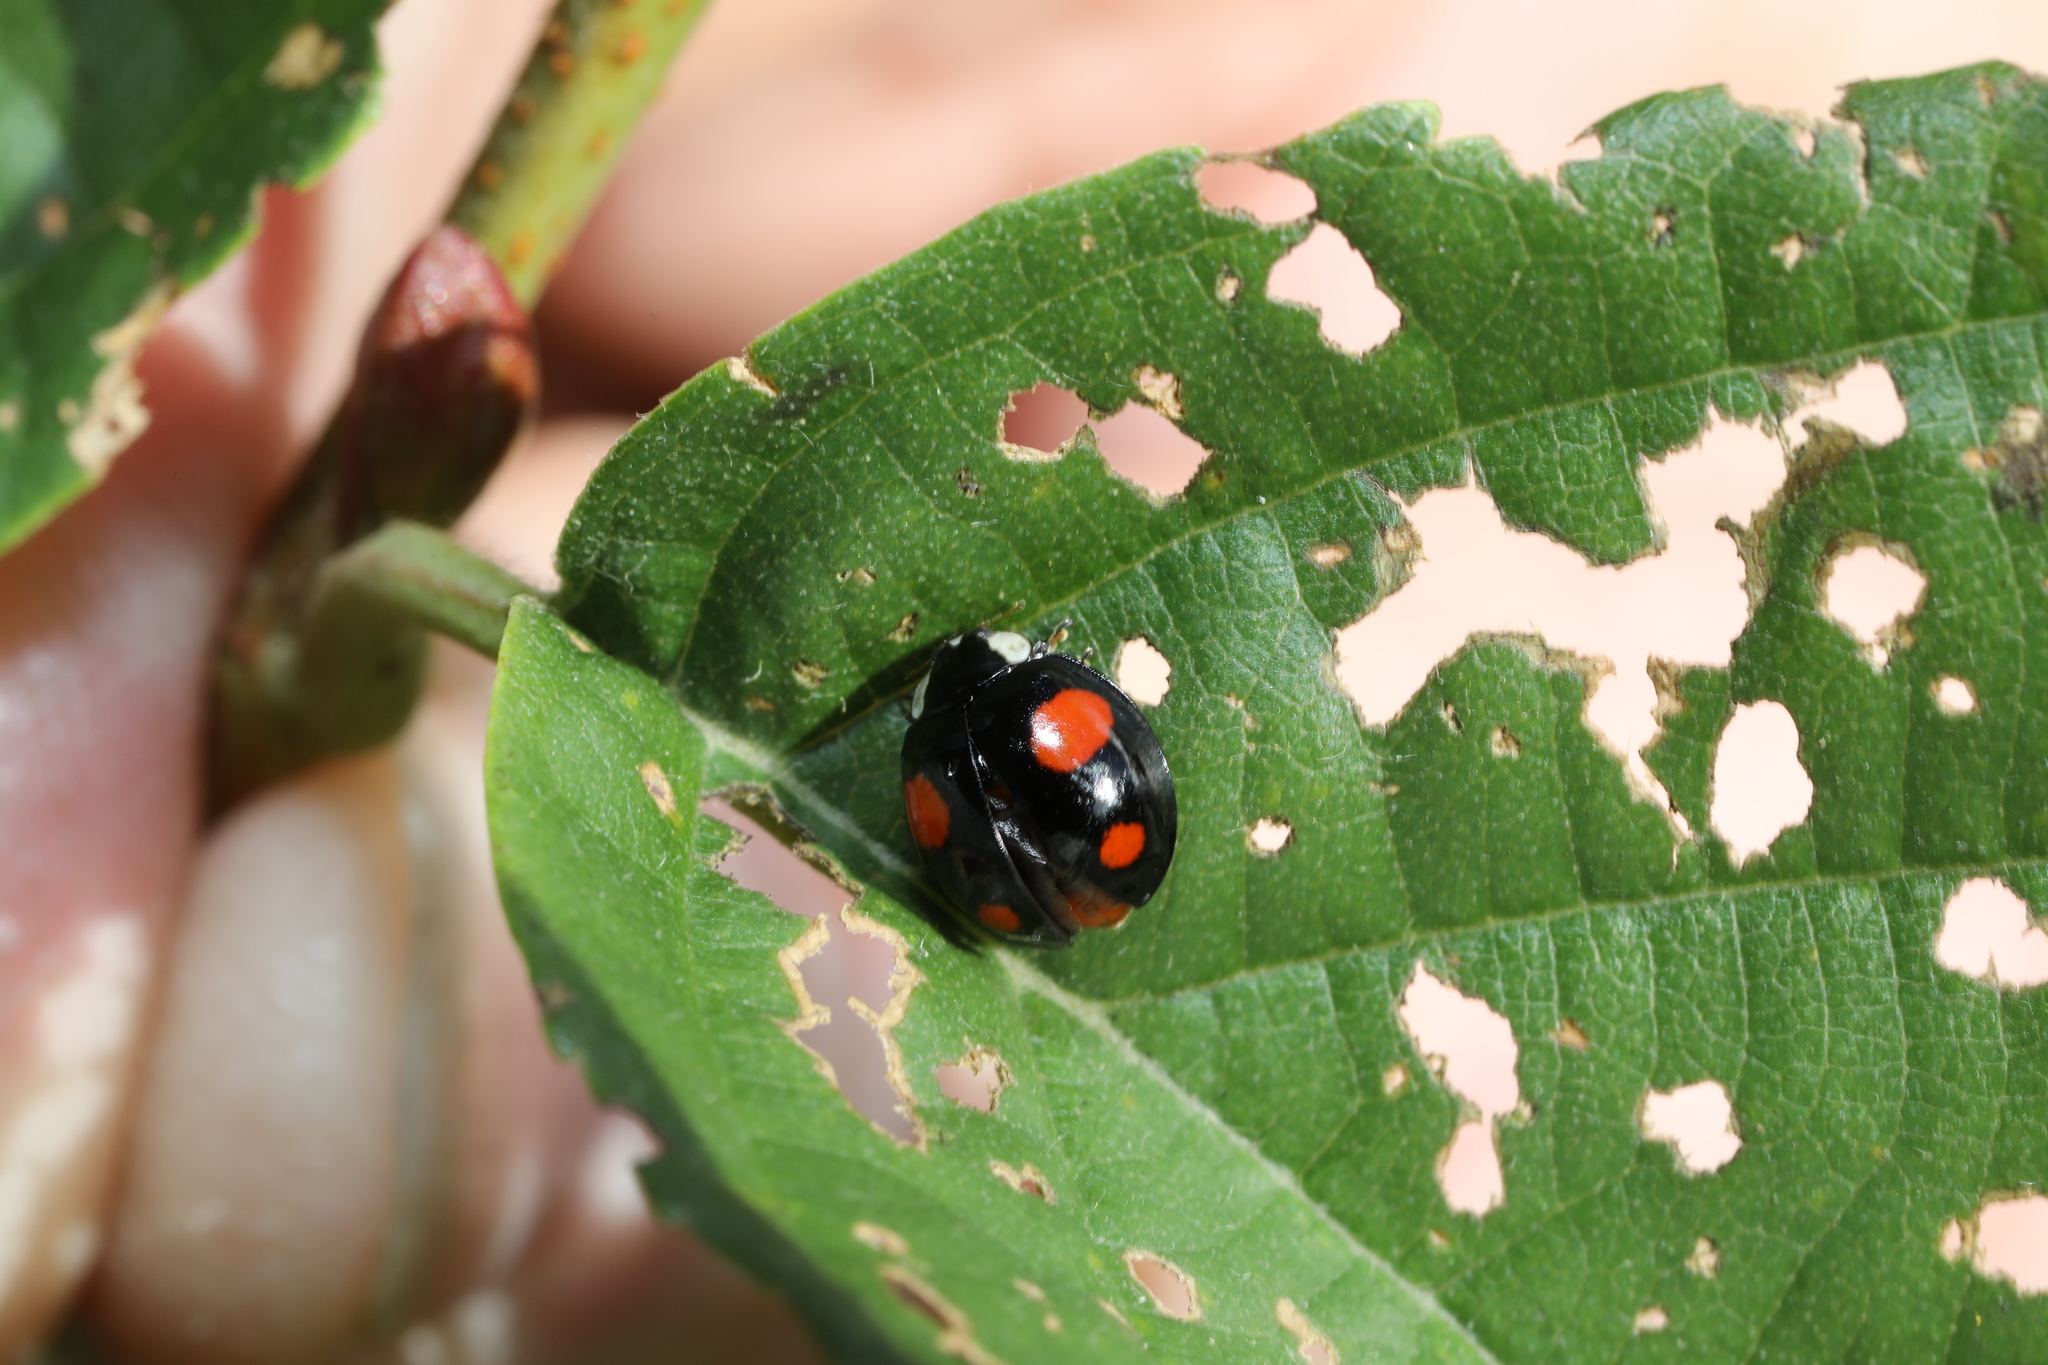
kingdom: Animalia
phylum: Arthropoda
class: Insecta
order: Coleoptera
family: Coccinellidae
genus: Harmonia
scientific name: Harmonia axyridis
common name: Harlequin ladybird
